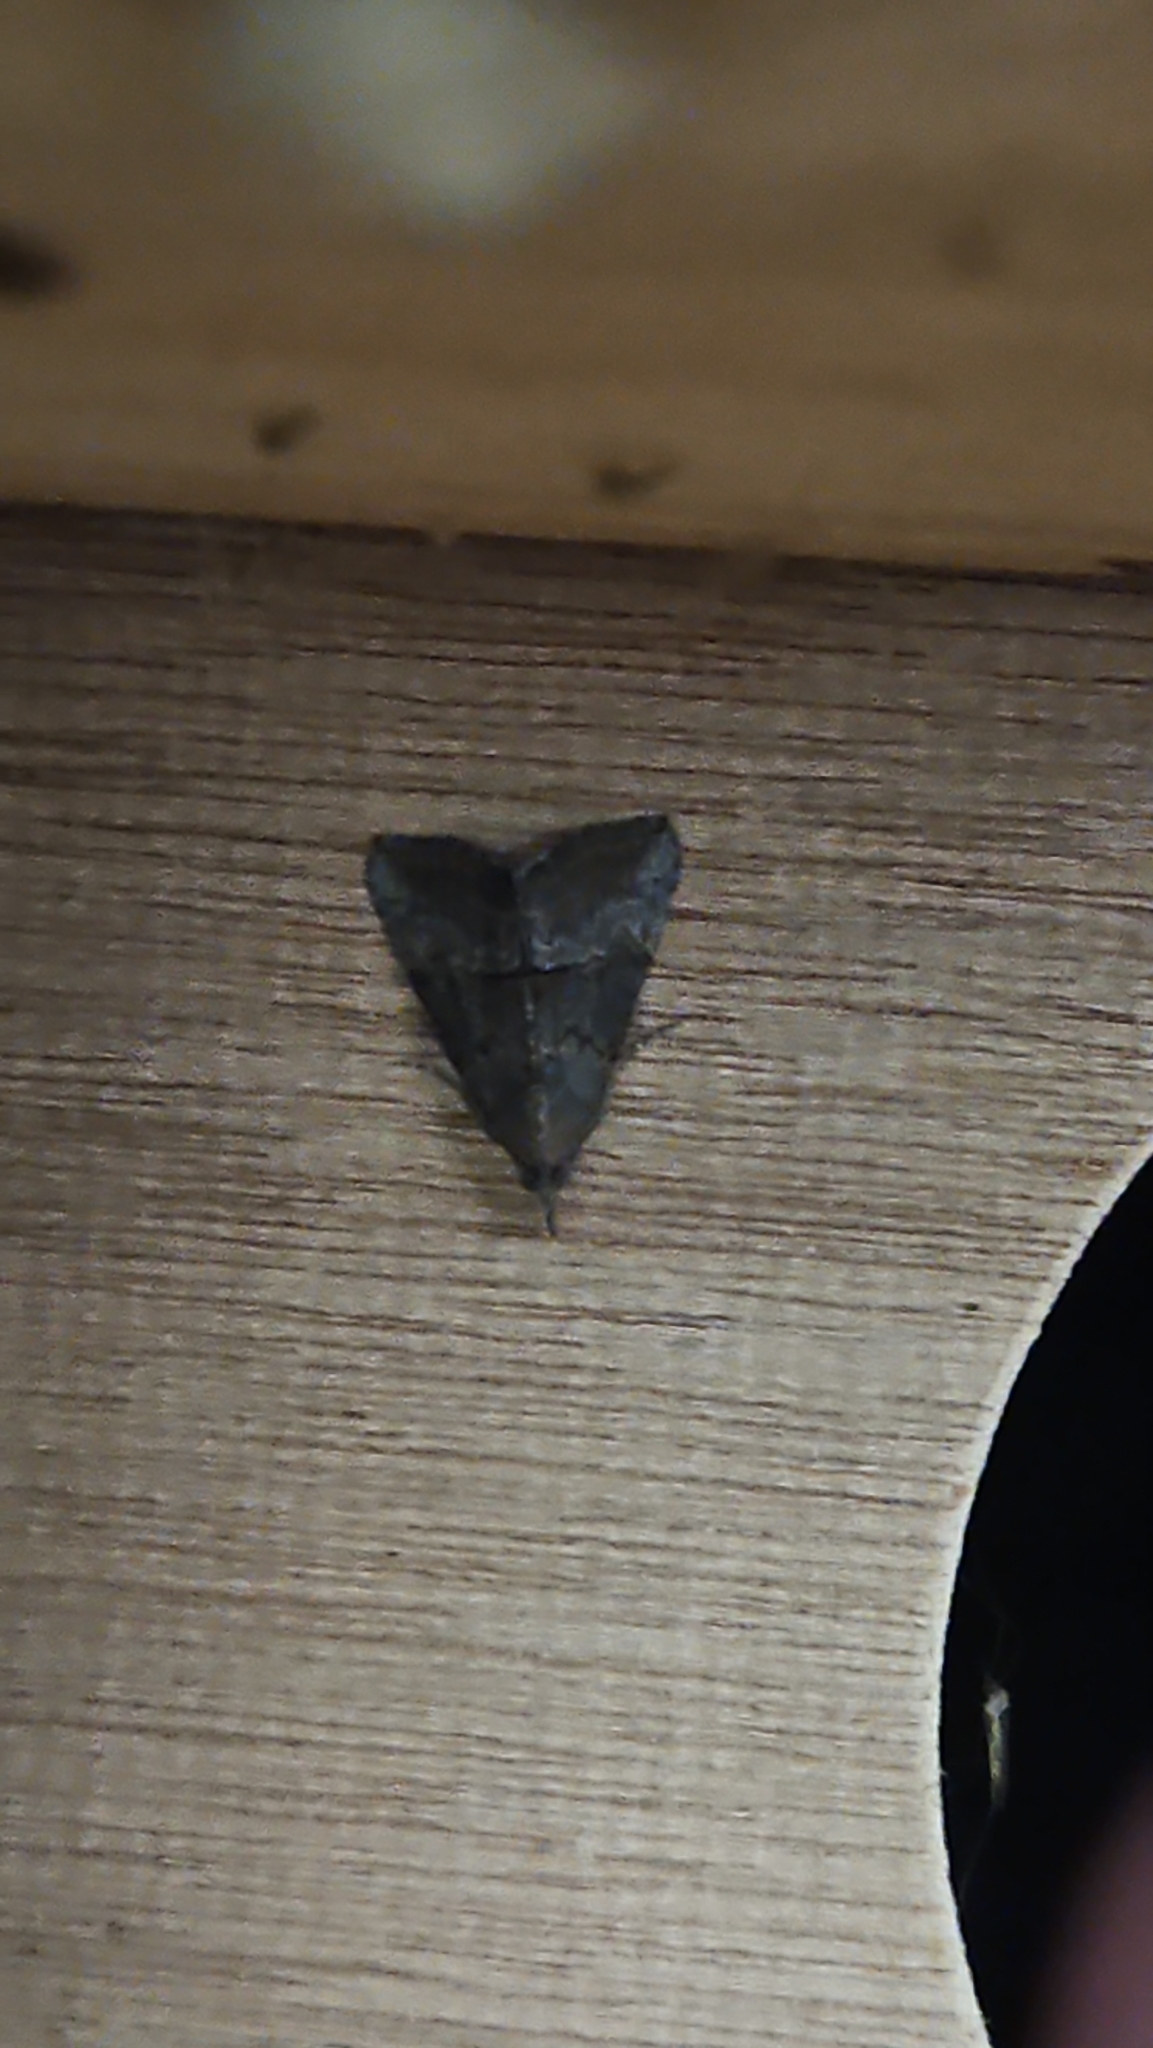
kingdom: Animalia
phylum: Arthropoda
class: Insecta
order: Lepidoptera
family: Erebidae
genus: Hypena
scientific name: Hypena scabra
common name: Green cloverworm
